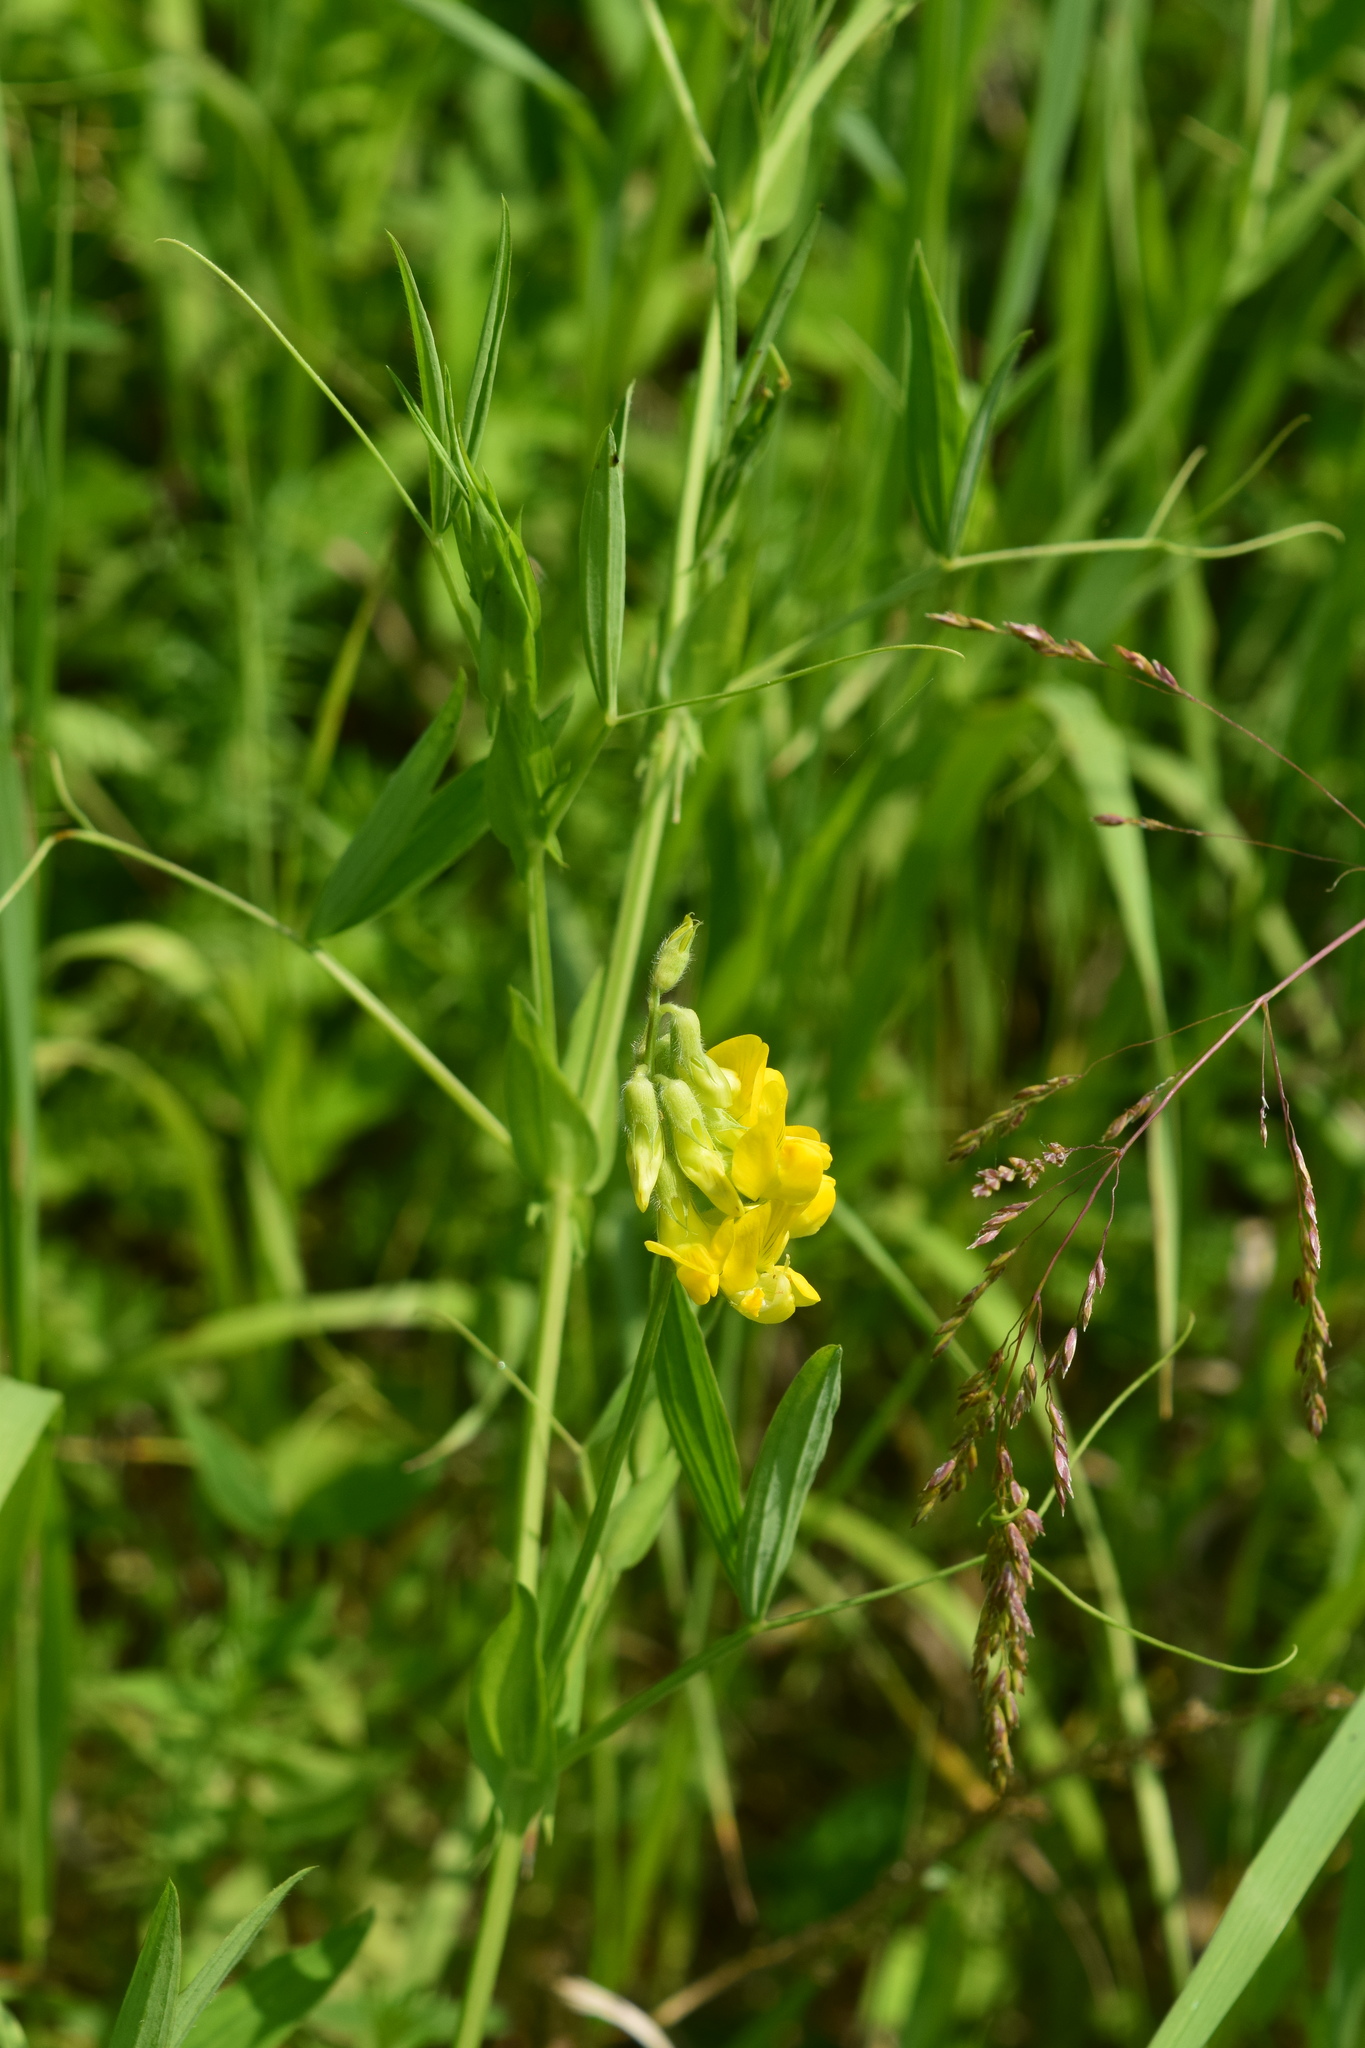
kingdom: Plantae
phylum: Tracheophyta
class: Magnoliopsida
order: Fabales
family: Fabaceae
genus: Lathyrus
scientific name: Lathyrus pratensis
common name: Meadow vetchling
